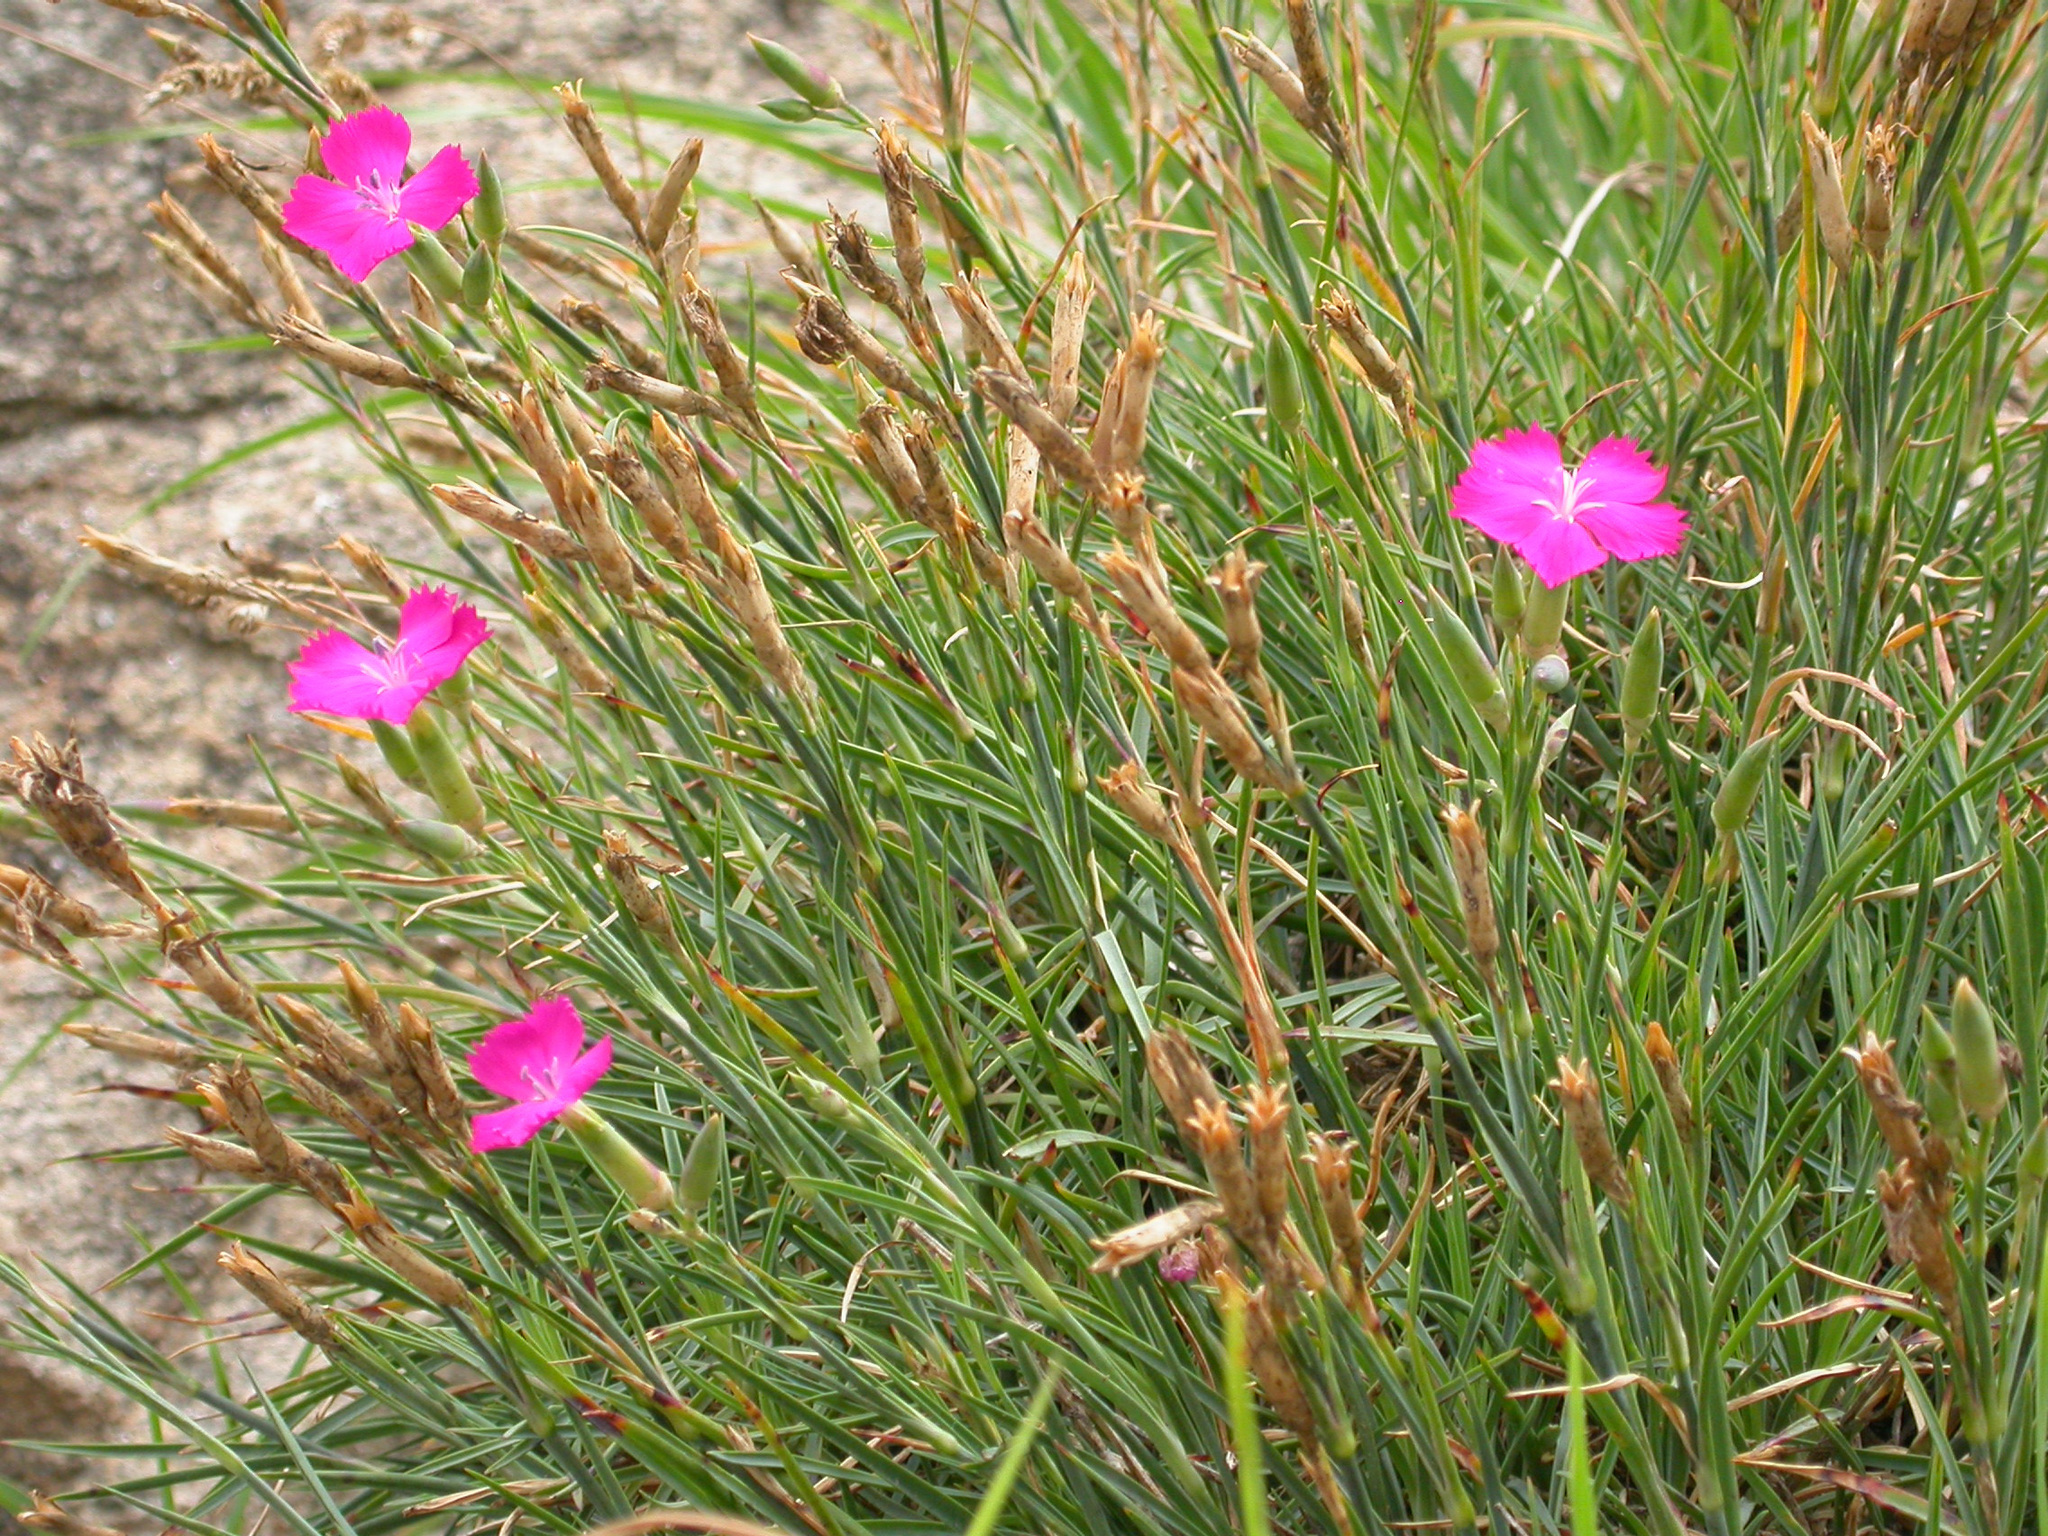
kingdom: Plantae
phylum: Tracheophyta
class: Magnoliopsida
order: Caryophyllales
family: Caryophyllaceae
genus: Dianthus
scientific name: Dianthus caryophyllus
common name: Clove pink
